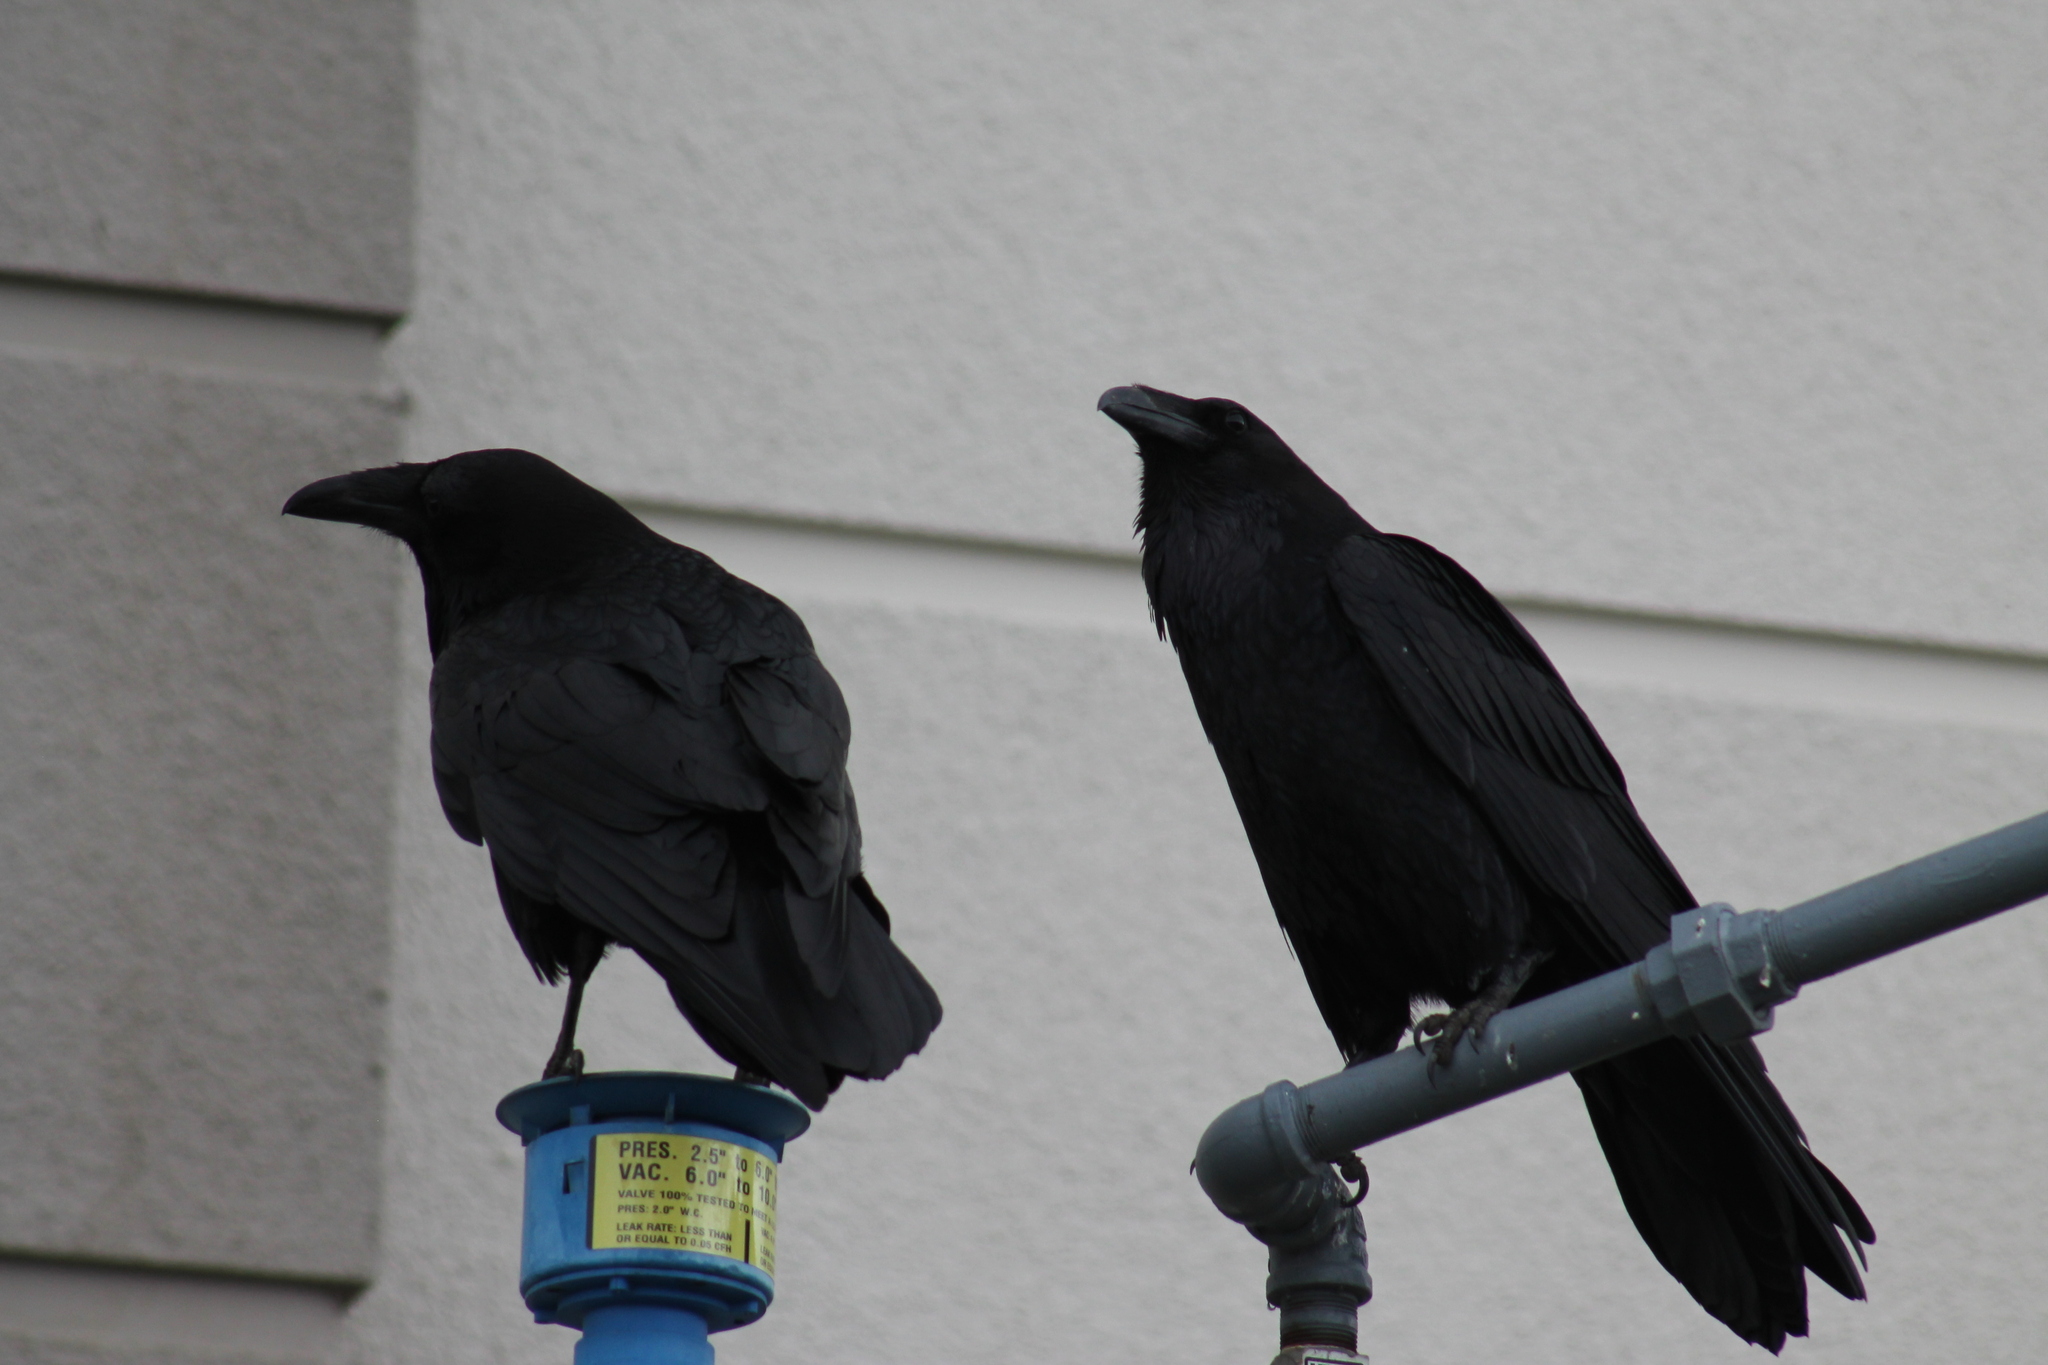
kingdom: Animalia
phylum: Chordata
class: Aves
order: Passeriformes
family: Corvidae
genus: Corvus
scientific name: Corvus corax
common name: Common raven
